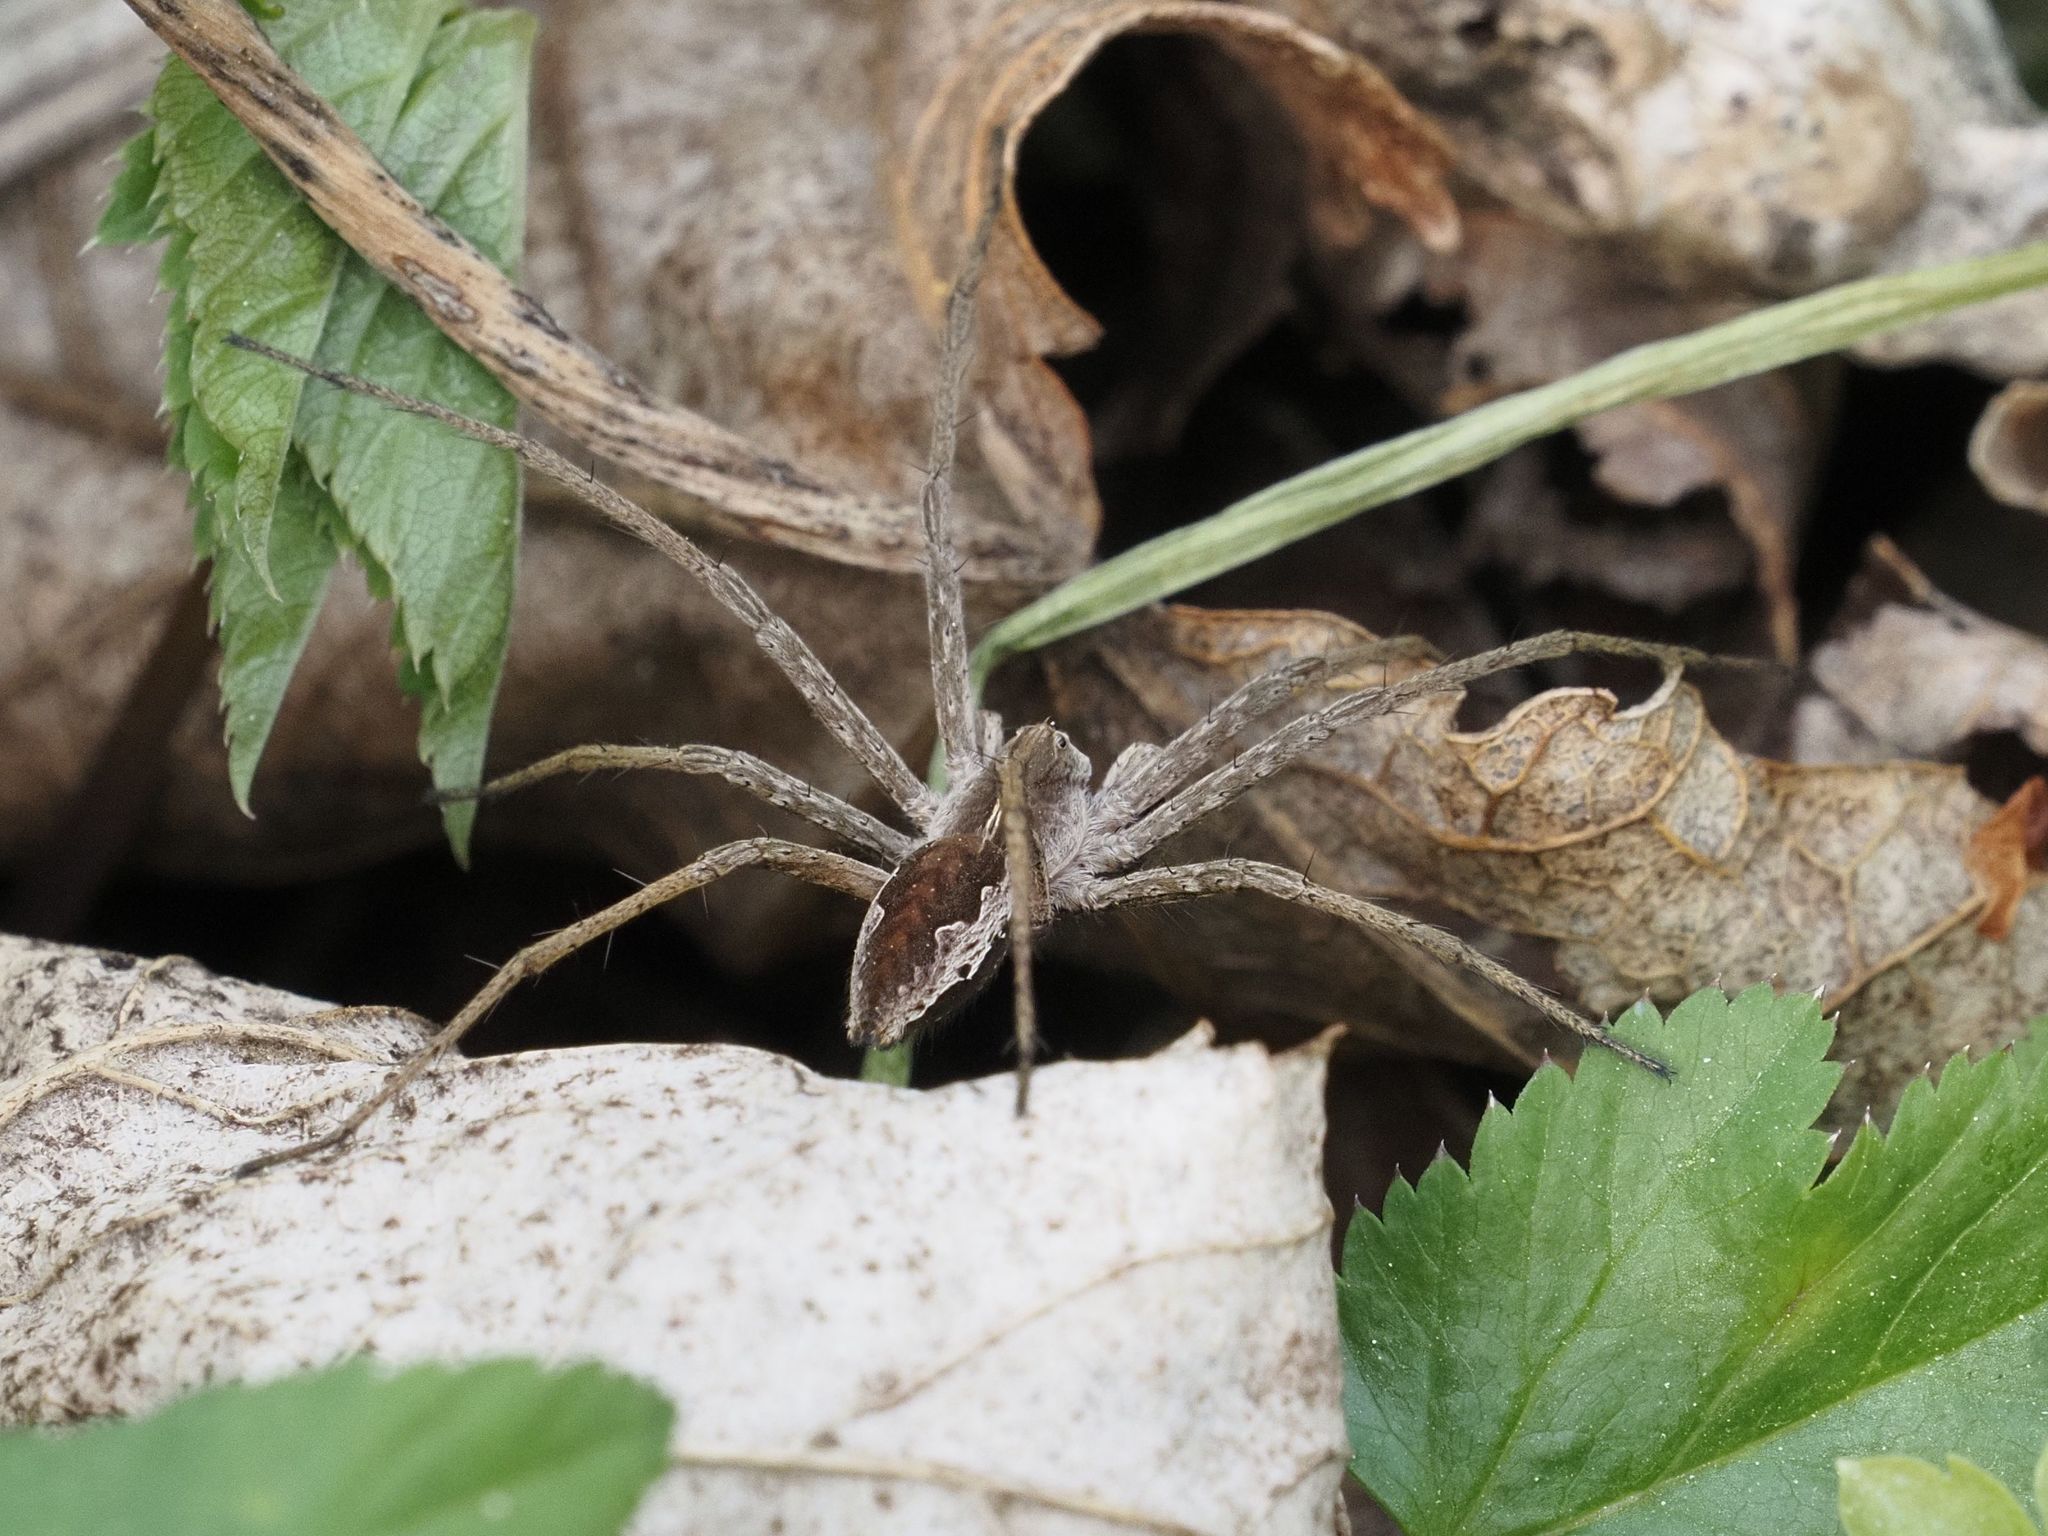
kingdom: Animalia
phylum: Arthropoda
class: Arachnida
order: Araneae
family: Pisauridae
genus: Pisaura
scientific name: Pisaura mirabilis
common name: Tent spider
